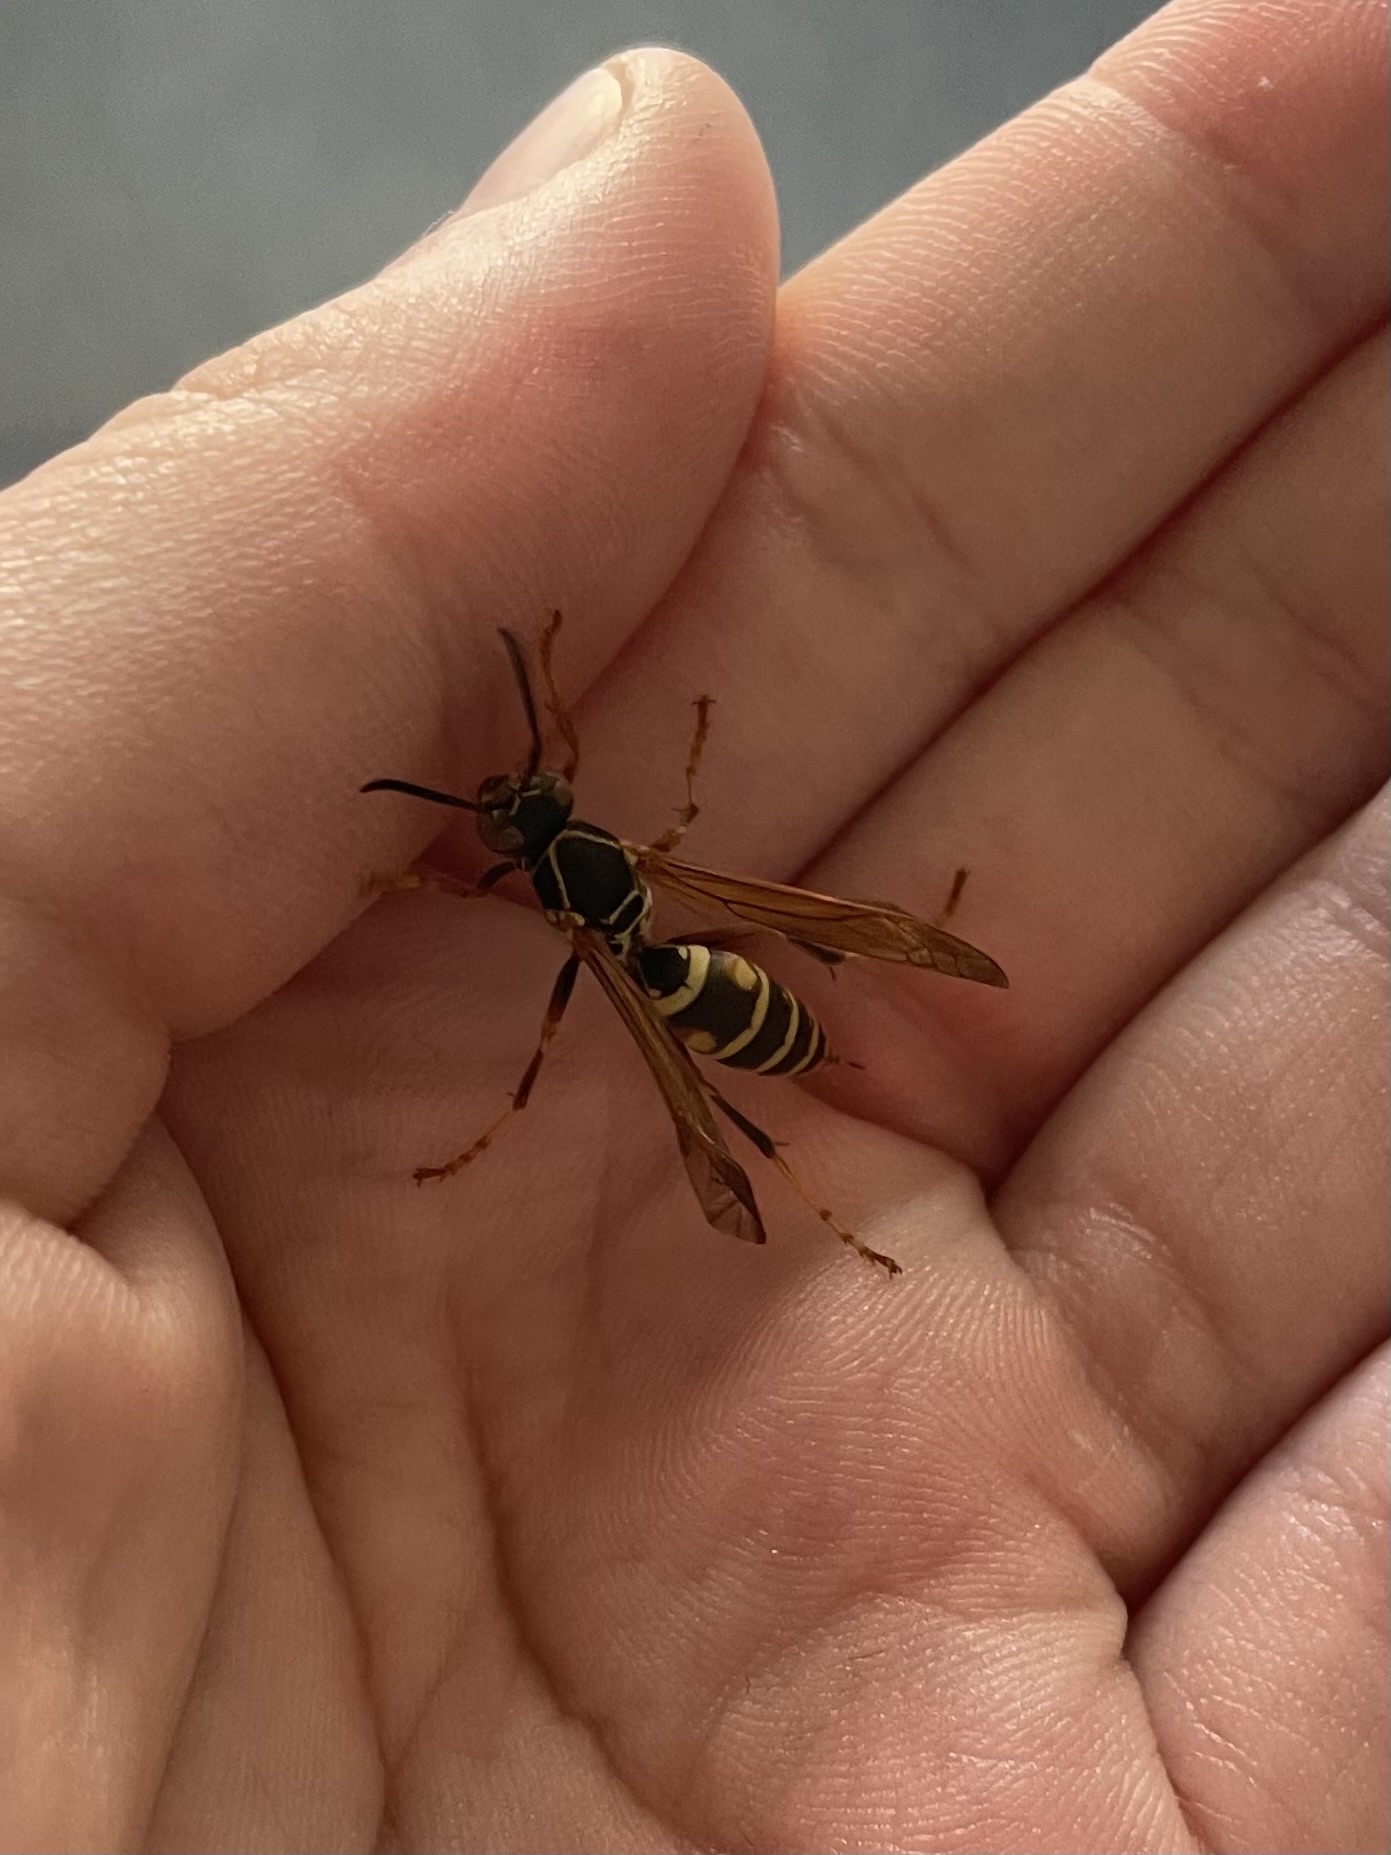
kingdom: Animalia
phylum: Arthropoda
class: Insecta
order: Hymenoptera
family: Eumenidae
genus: Polistes
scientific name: Polistes fuscatus
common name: Dark paper wasp
